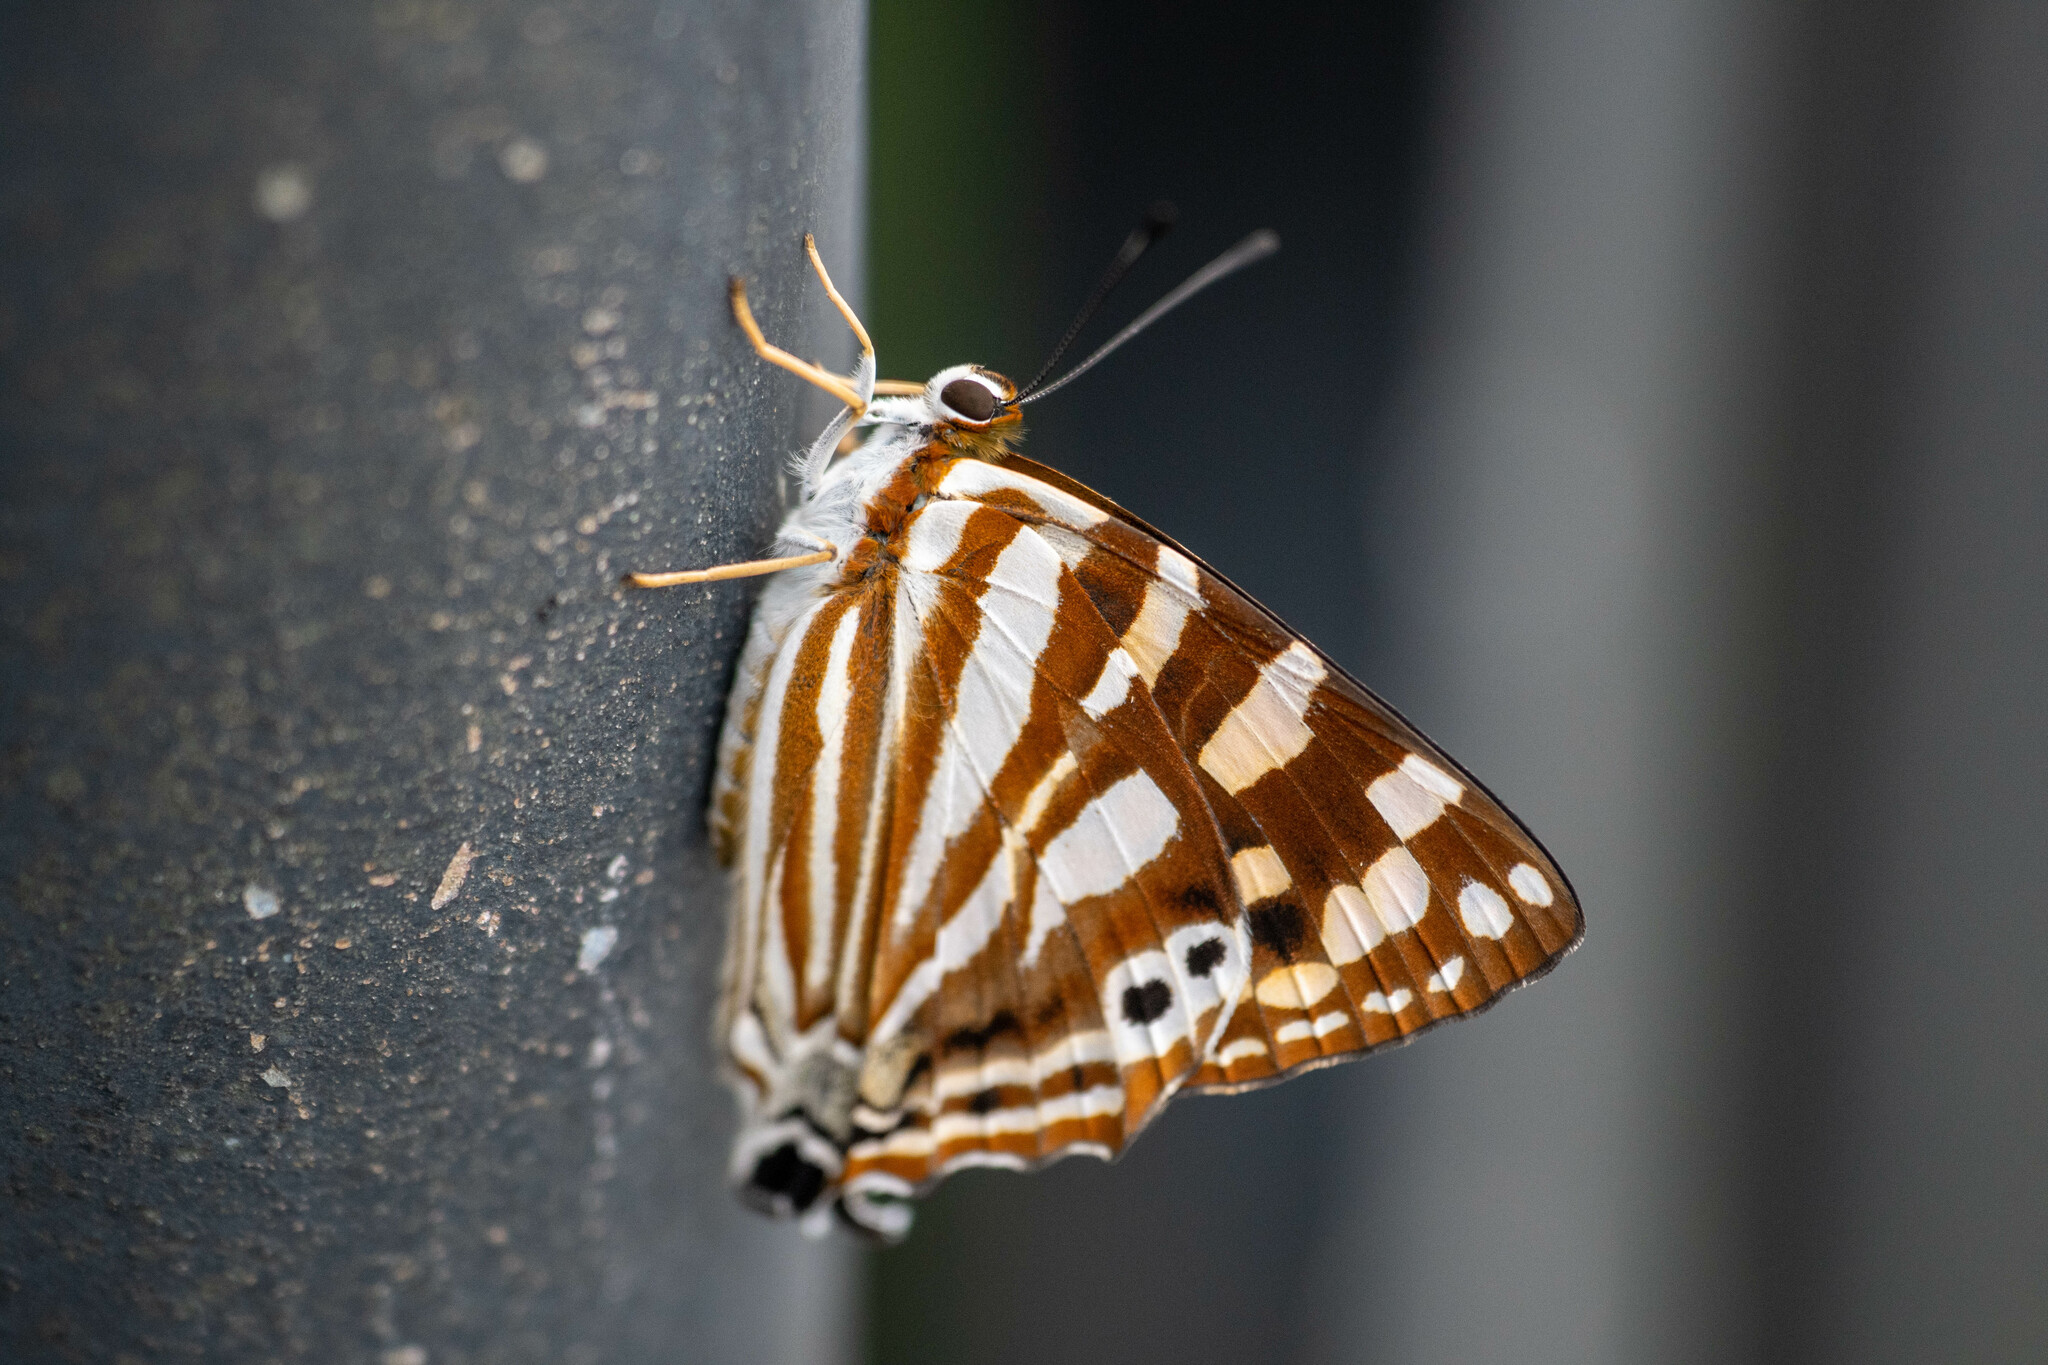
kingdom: Animalia
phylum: Arthropoda
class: Insecta
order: Lepidoptera
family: Lycaenidae
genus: Dodona
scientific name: Dodona egeon
